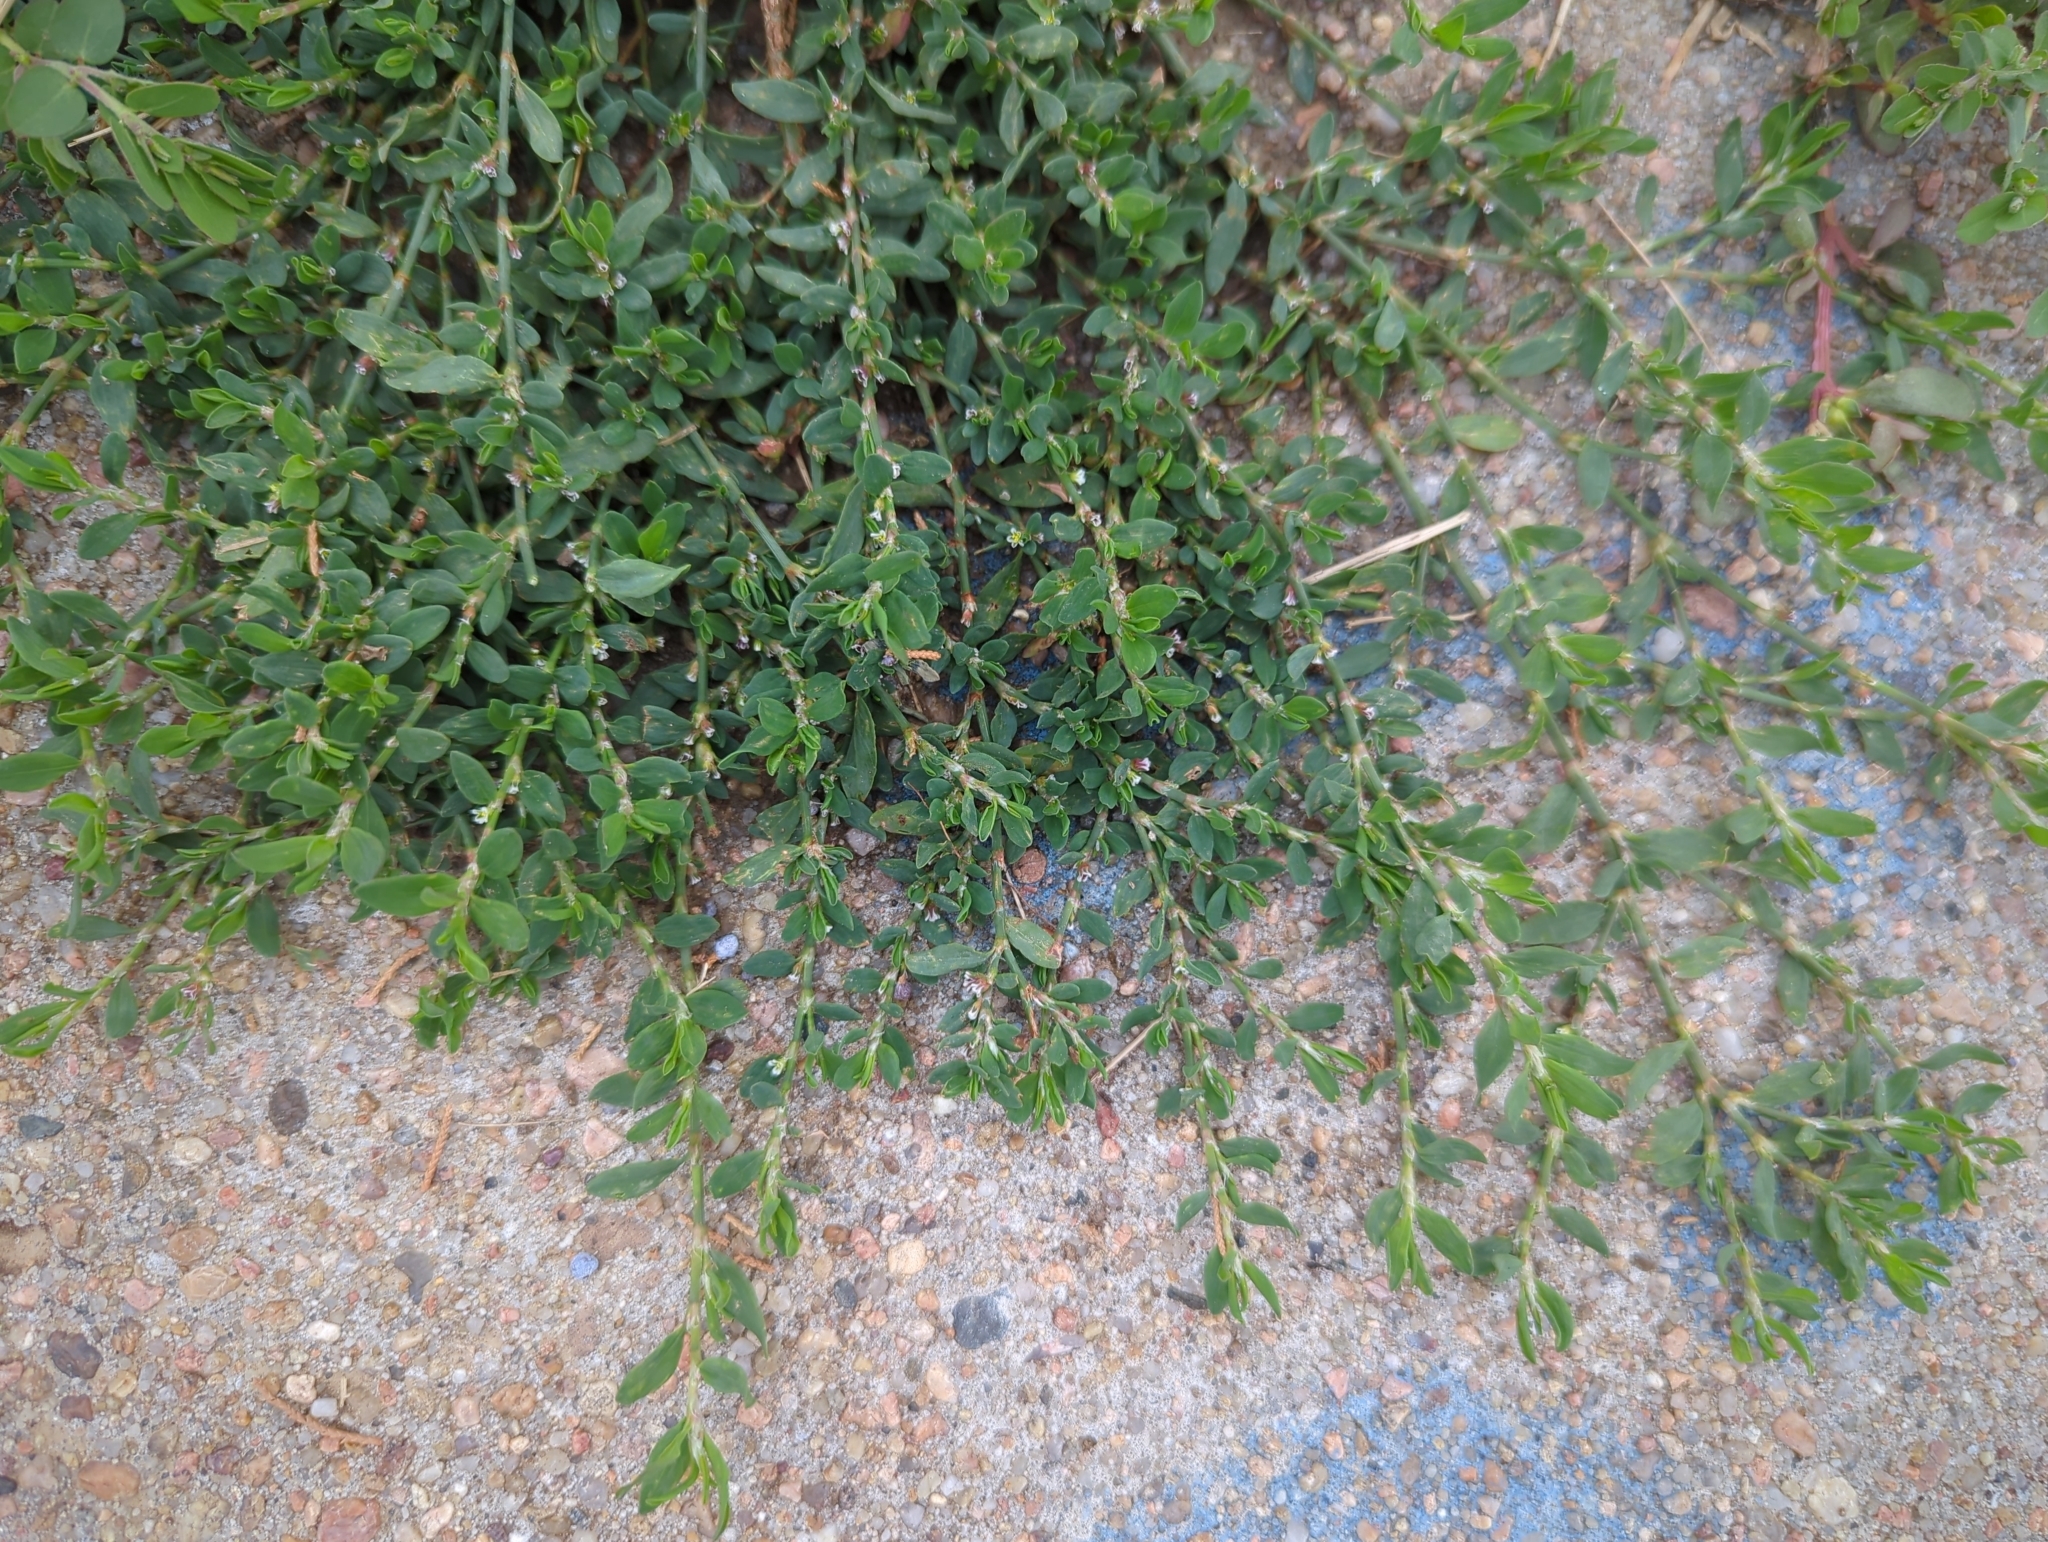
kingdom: Plantae
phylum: Tracheophyta
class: Magnoliopsida
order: Caryophyllales
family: Polygonaceae
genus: Polygonum
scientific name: Polygonum
